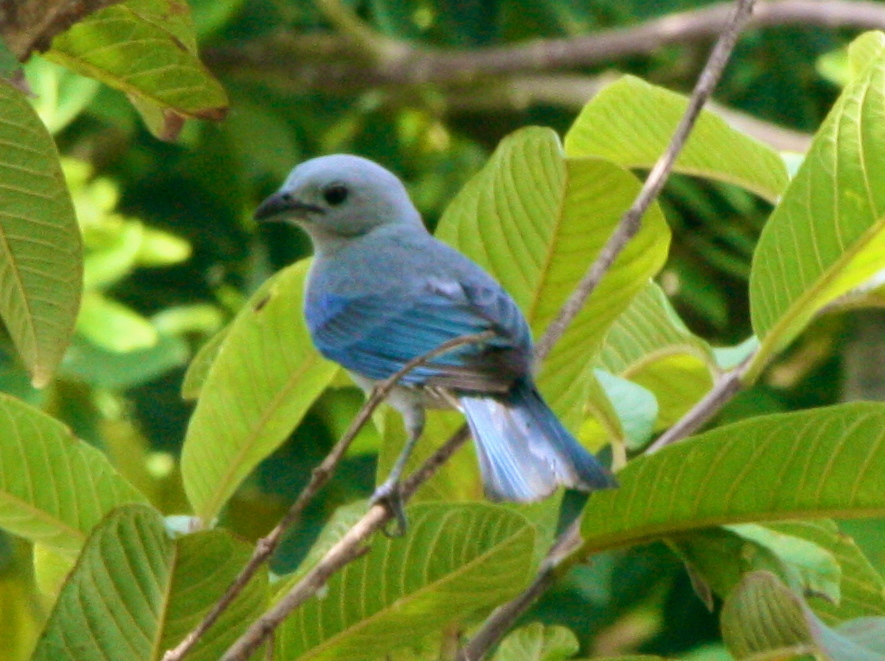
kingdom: Animalia
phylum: Chordata
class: Aves
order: Passeriformes
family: Thraupidae
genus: Thraupis
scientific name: Thraupis episcopus
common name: Blue-grey tanager
